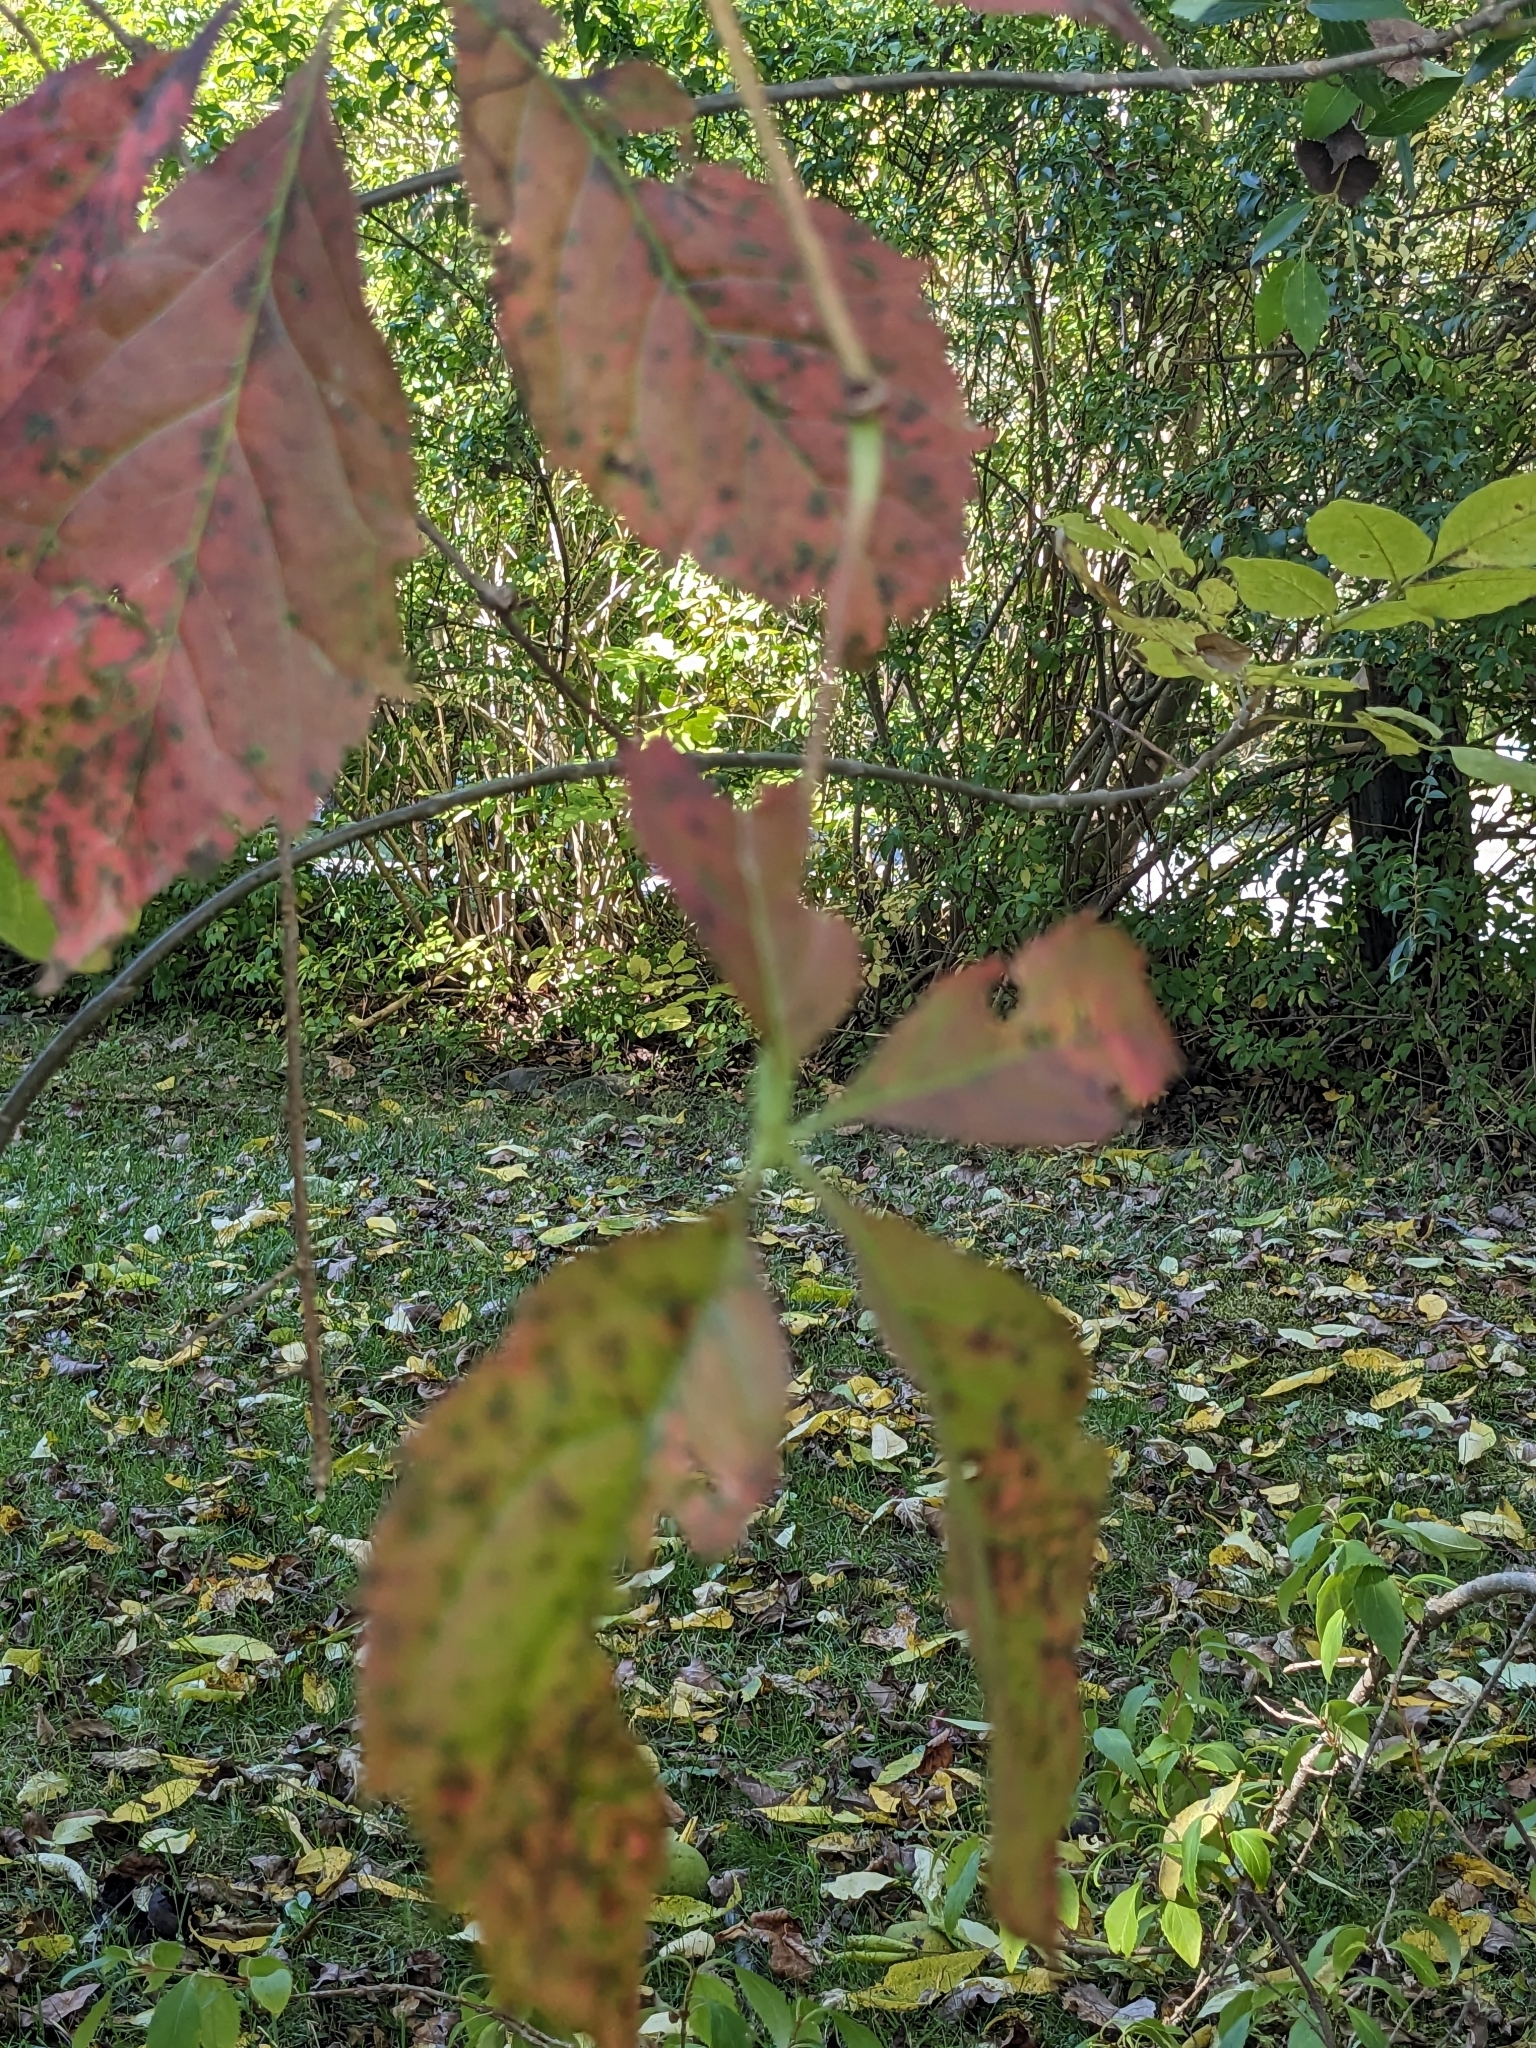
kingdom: Plantae
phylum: Tracheophyta
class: Magnoliopsida
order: Vitales
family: Vitaceae
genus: Parthenocissus
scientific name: Parthenocissus quinquefolia
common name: Virginia-creeper
